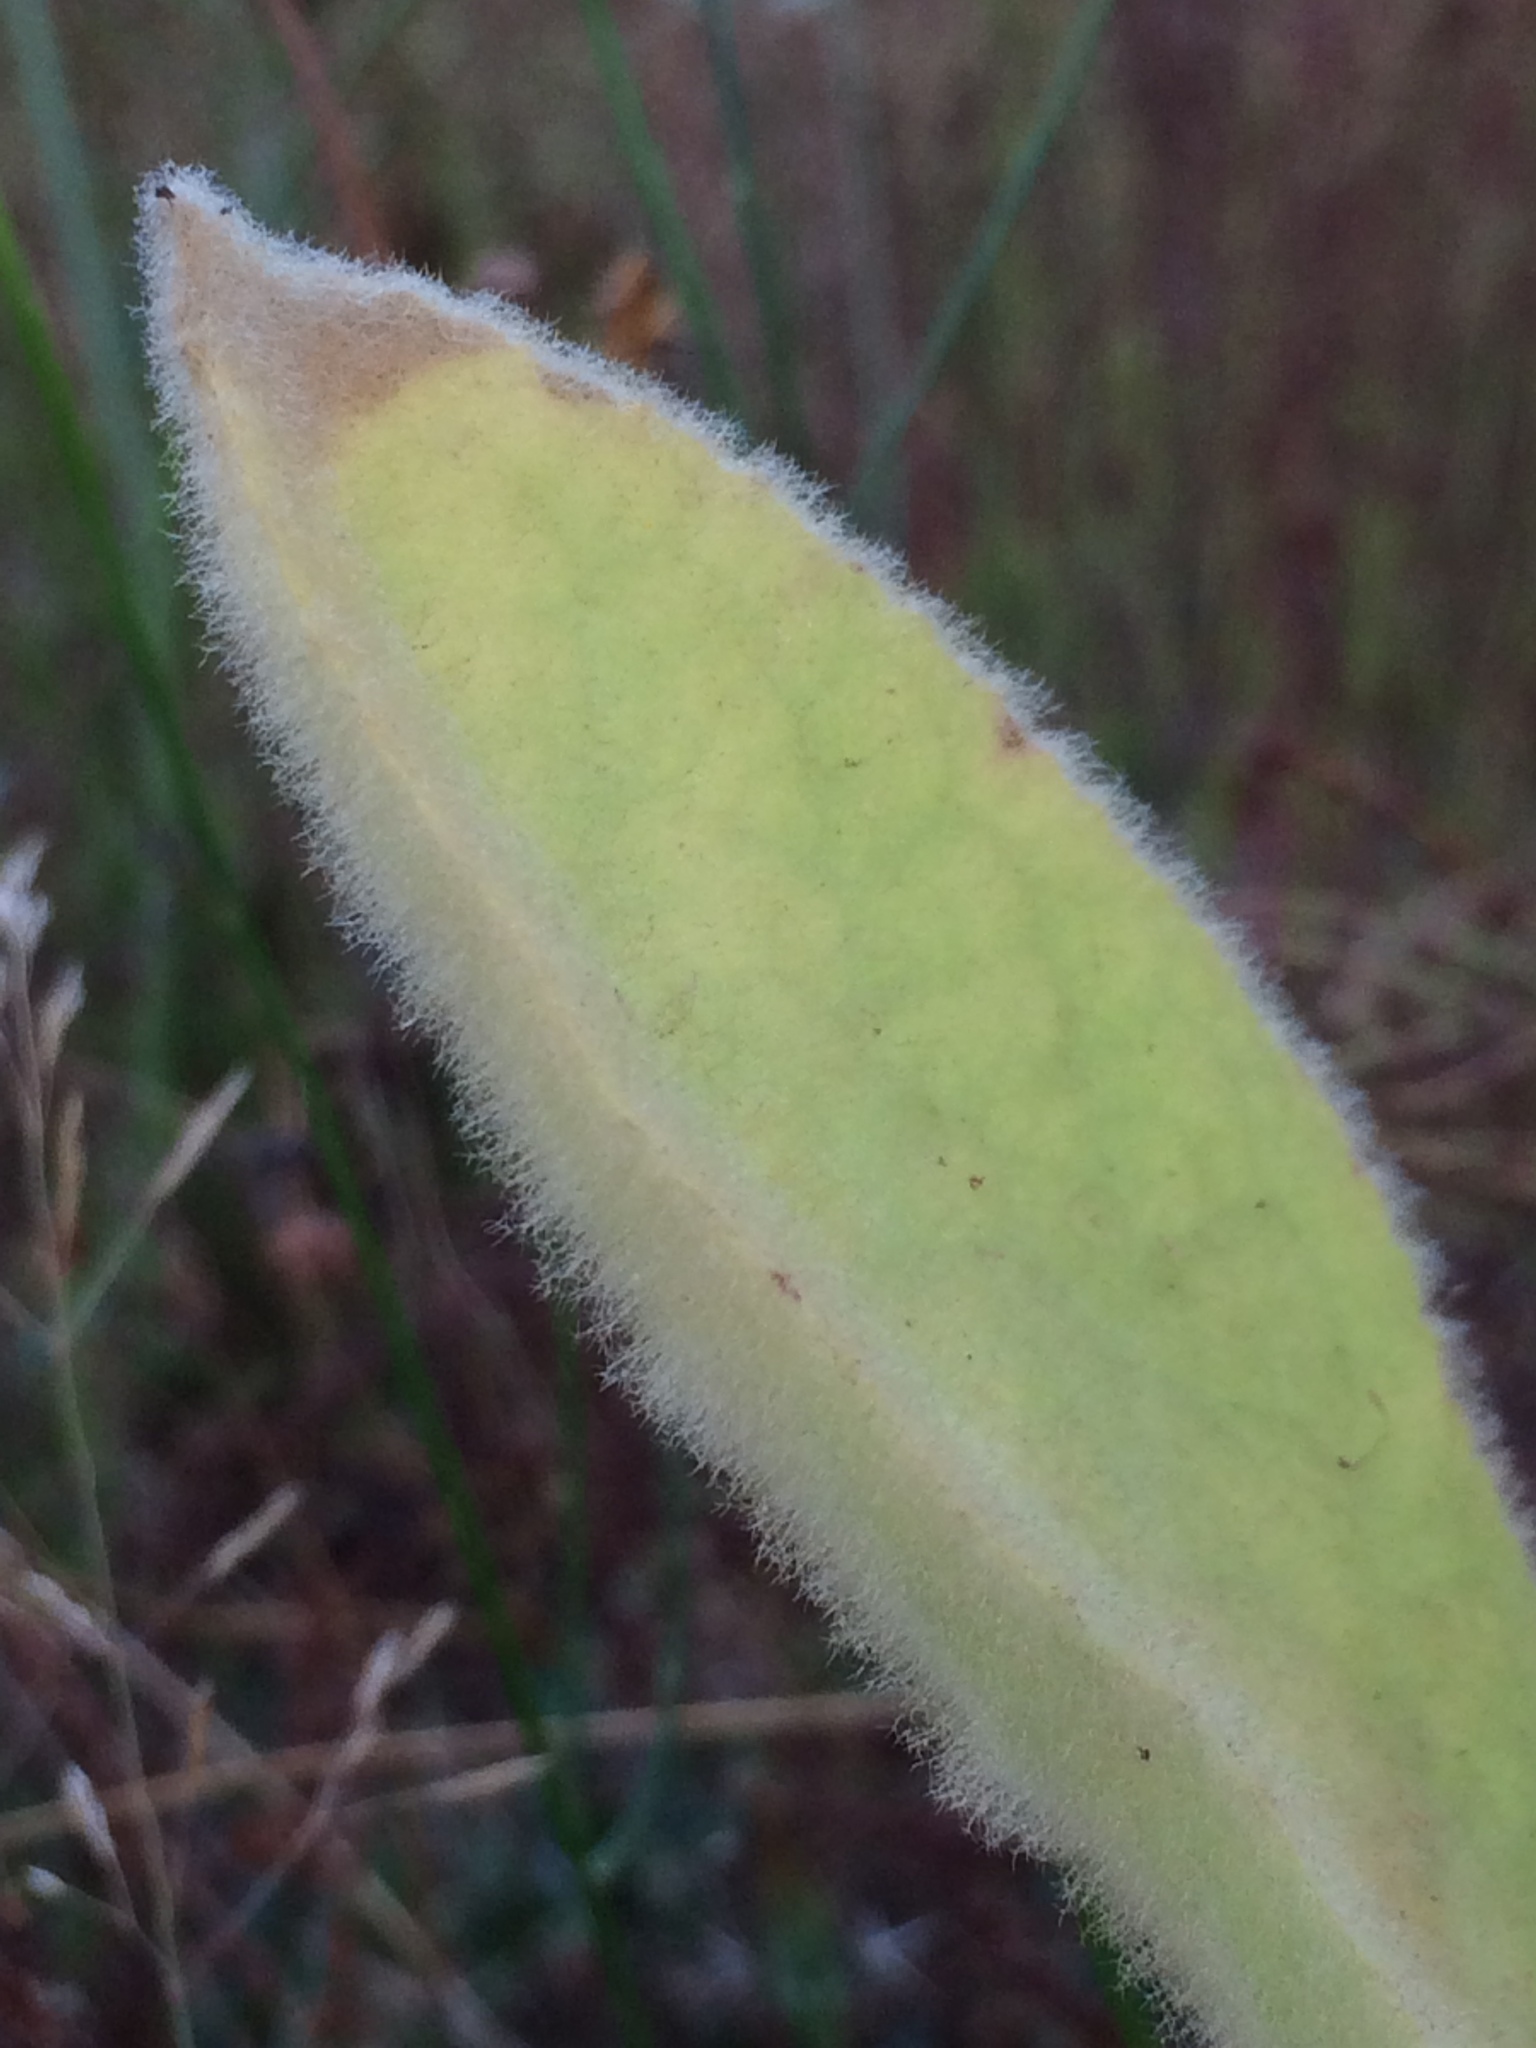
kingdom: Plantae
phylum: Tracheophyta
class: Magnoliopsida
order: Lamiales
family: Scrophulariaceae
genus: Verbascum
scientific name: Verbascum thapsus
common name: Common mullein
